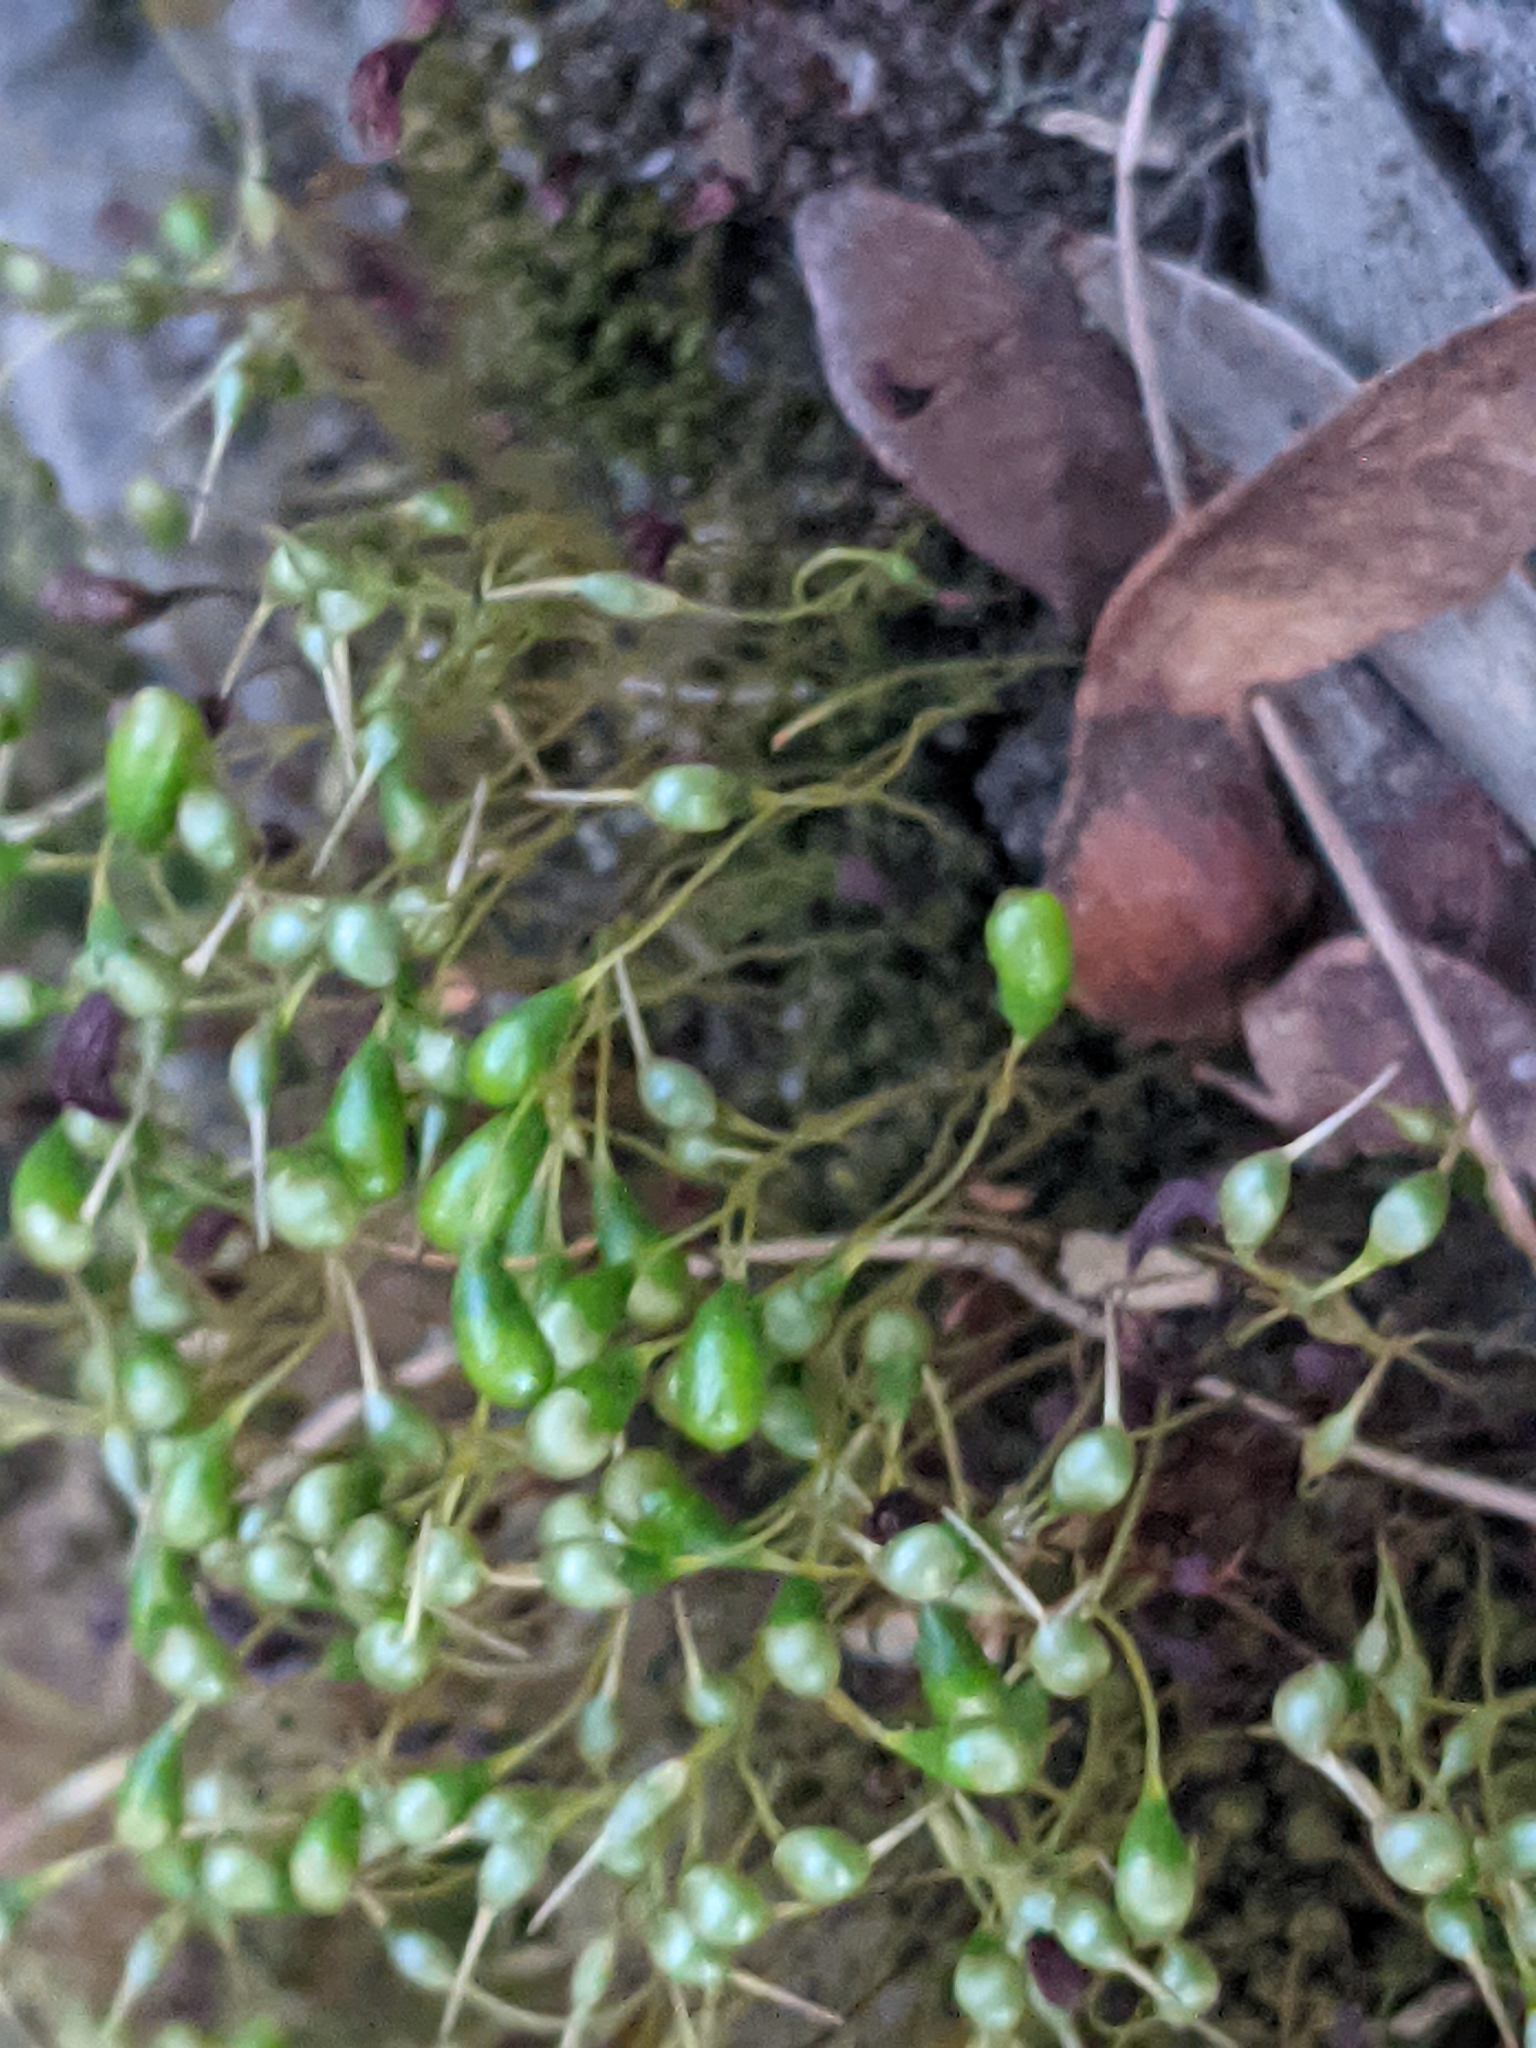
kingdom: Plantae
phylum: Bryophyta
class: Bryopsida
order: Funariales
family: Funariaceae
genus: Funaria
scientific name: Funaria hygrometrica
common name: Common cord moss
